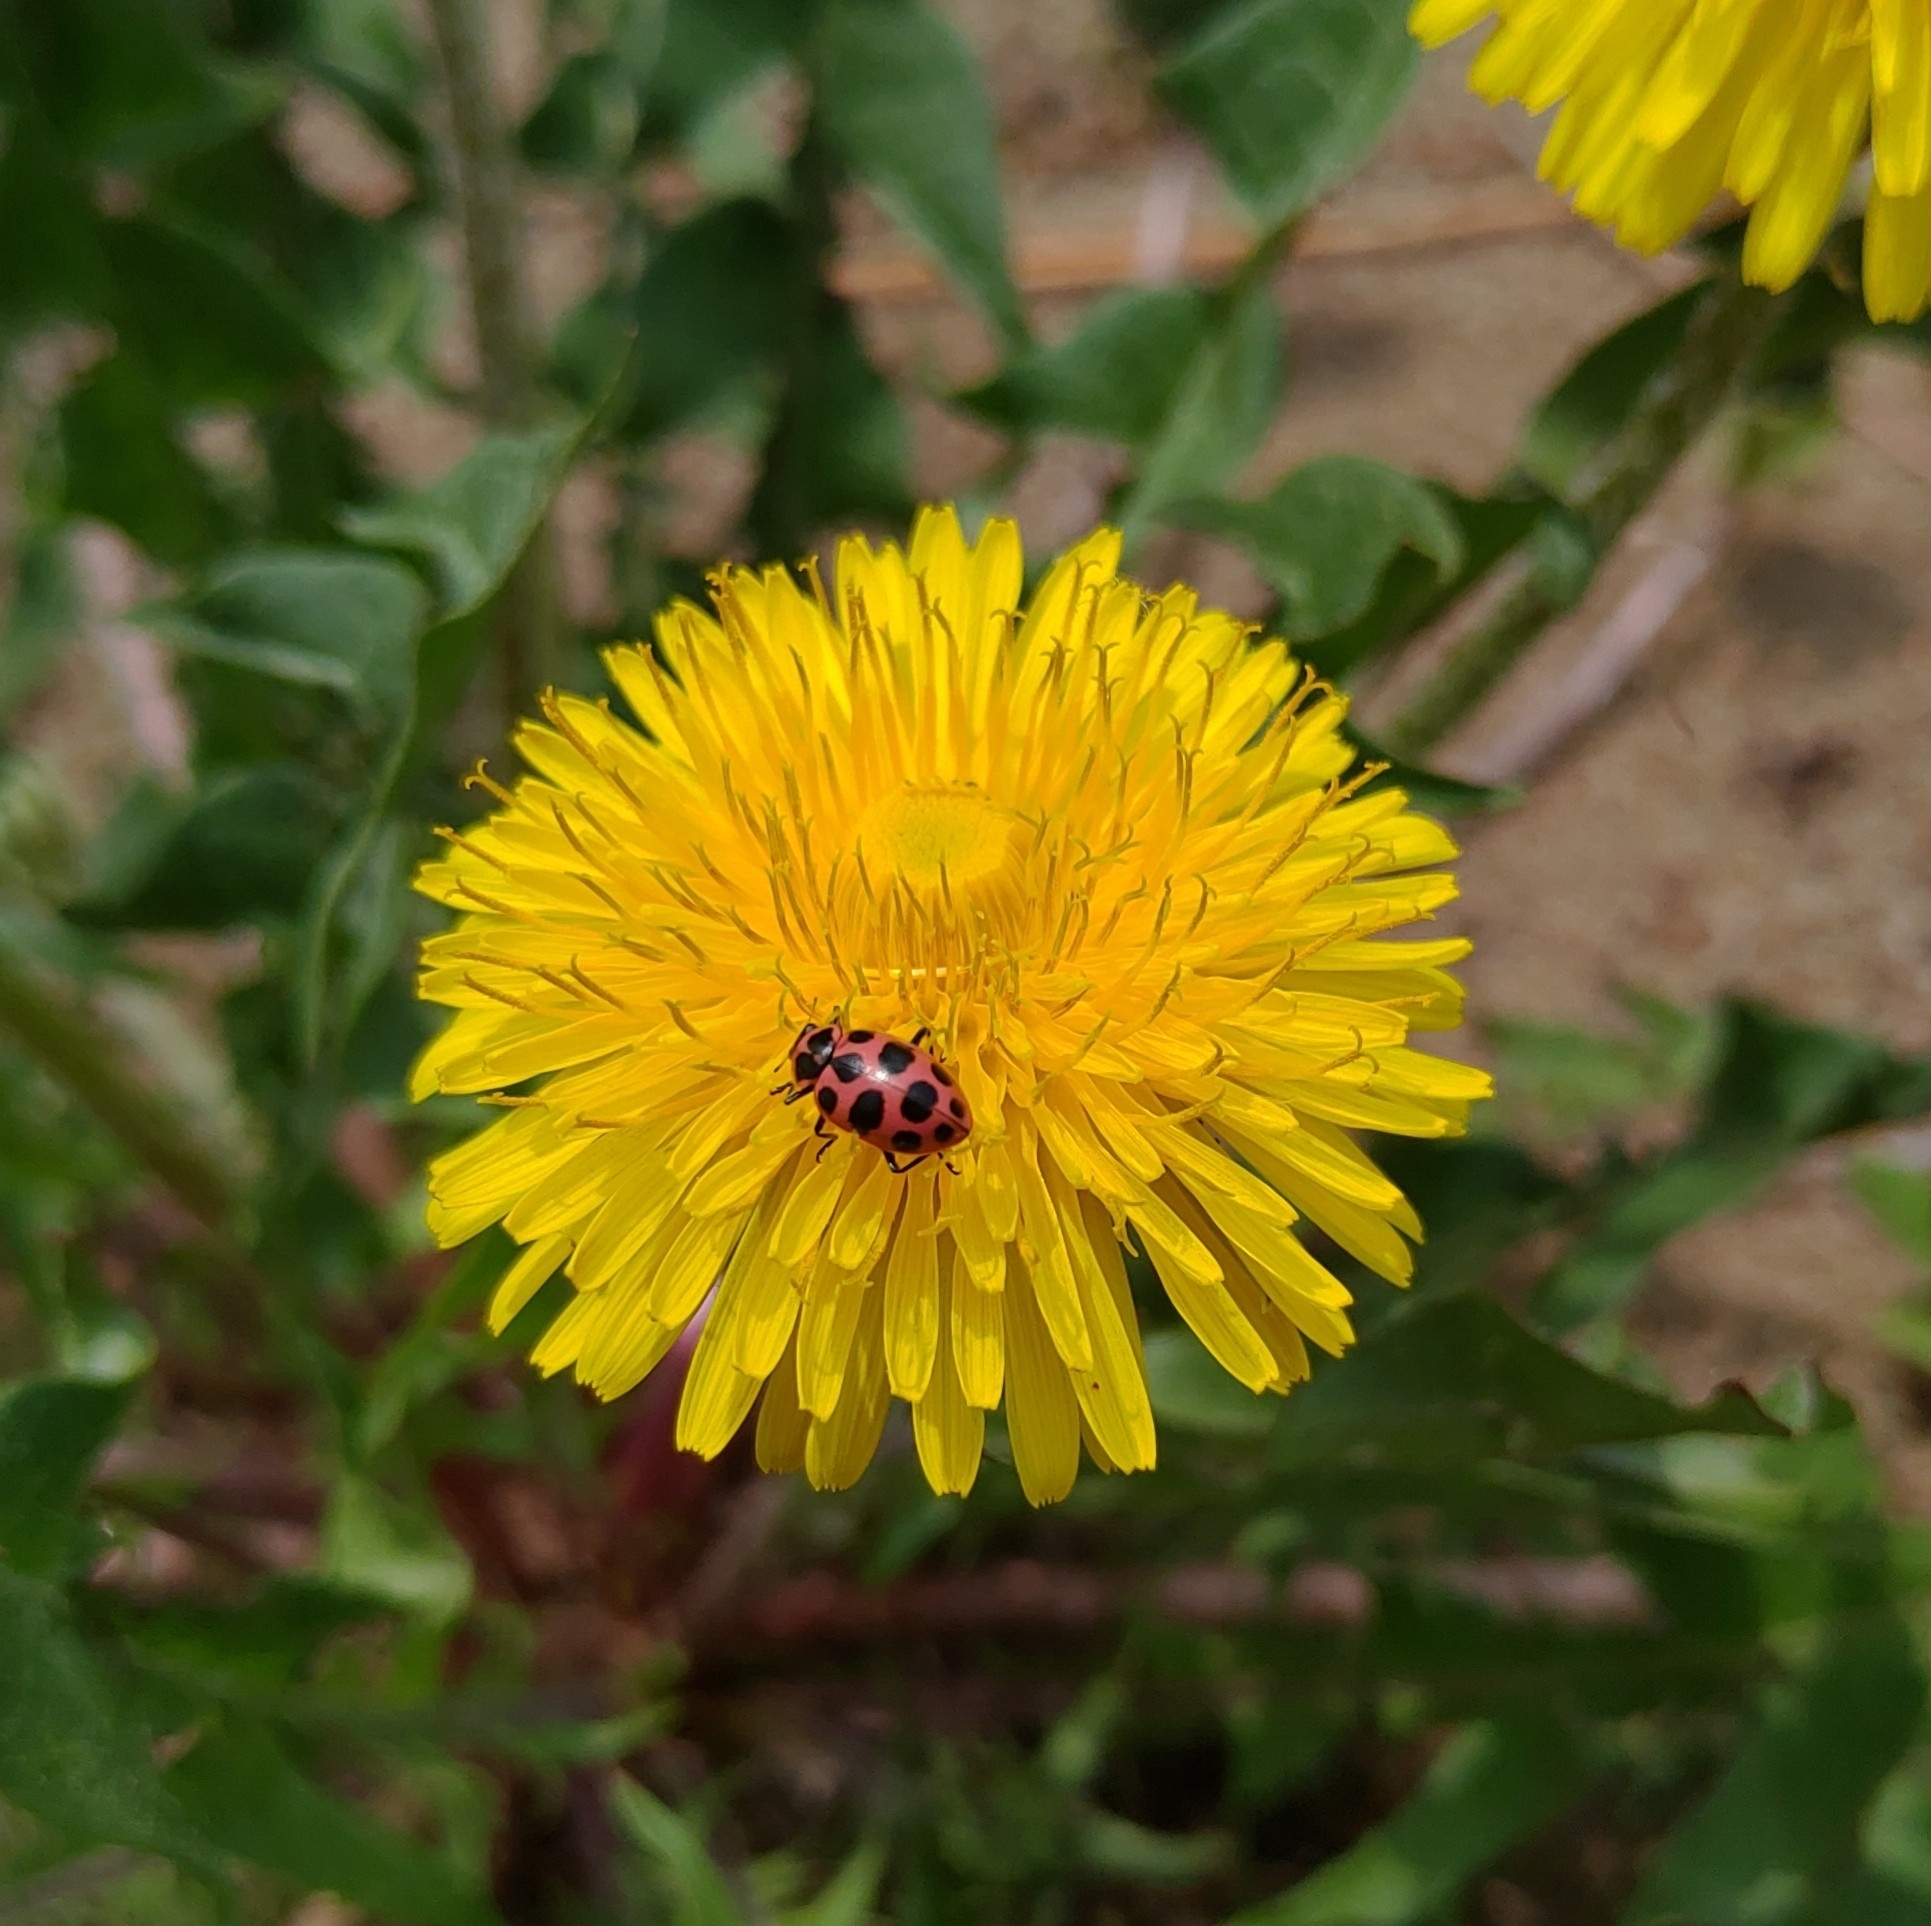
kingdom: Animalia
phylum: Arthropoda
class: Insecta
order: Coleoptera
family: Coccinellidae
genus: Coleomegilla
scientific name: Coleomegilla maculata
